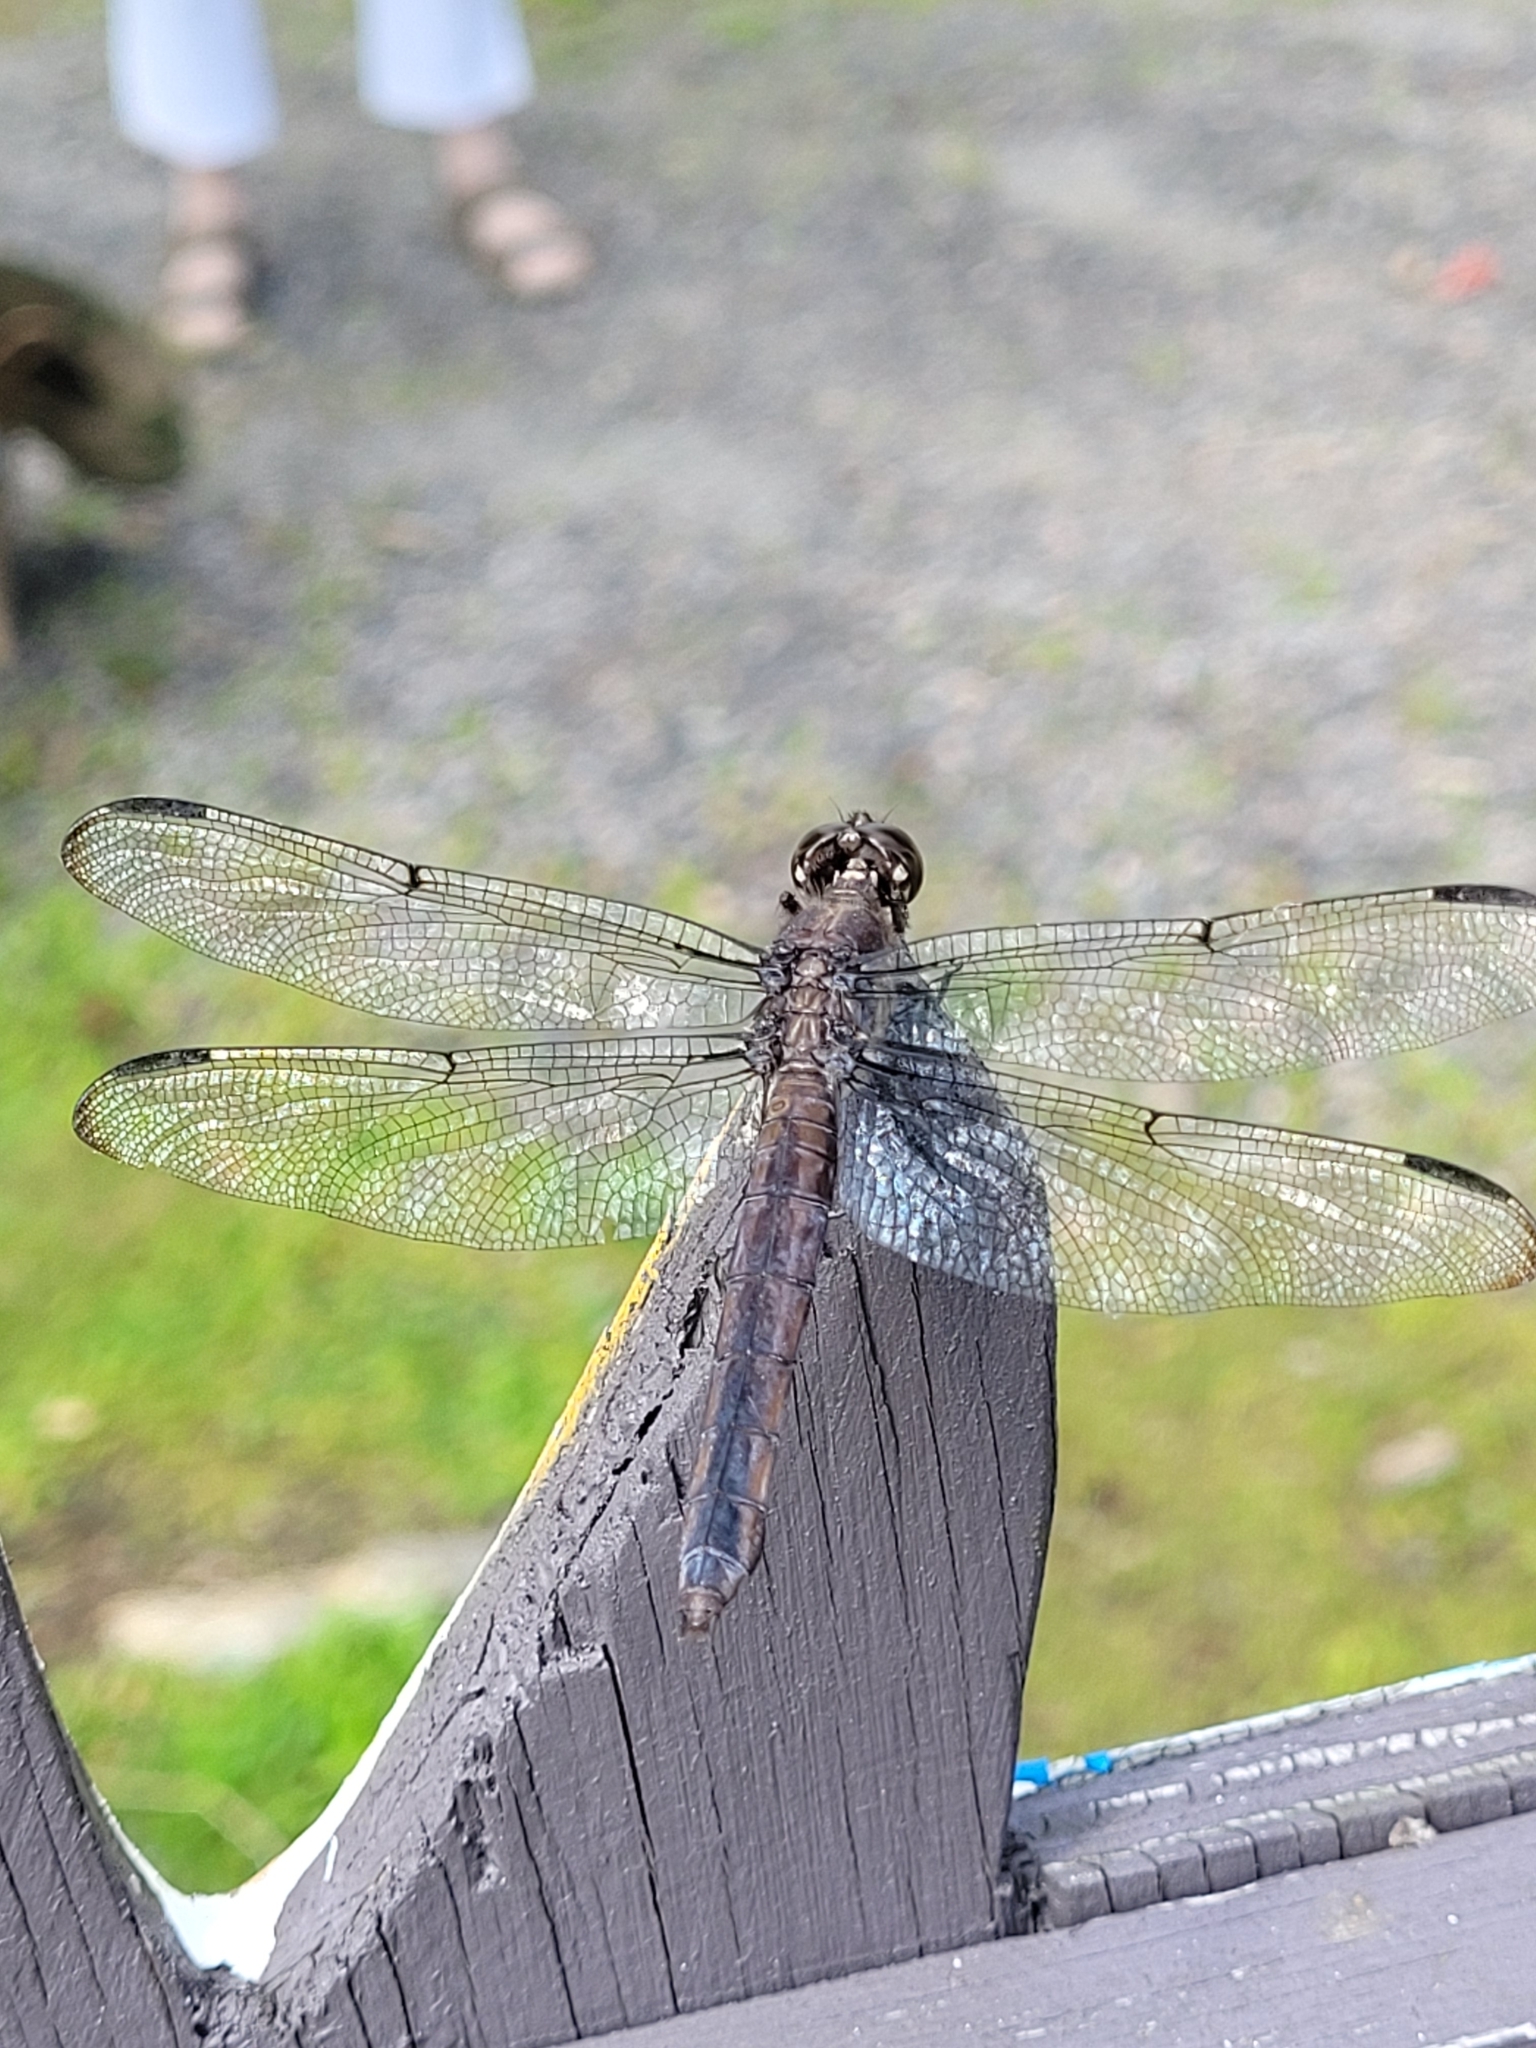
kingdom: Animalia
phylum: Arthropoda
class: Insecta
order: Odonata
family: Libellulidae
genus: Libellula
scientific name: Libellula incesta
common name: Slaty skimmer
